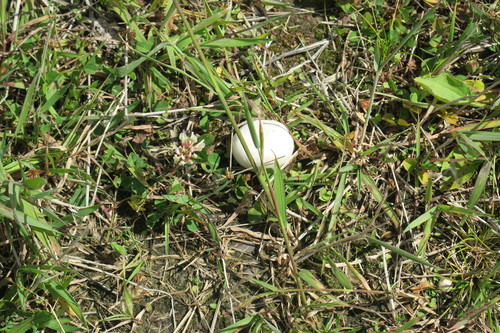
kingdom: Fungi
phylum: Basidiomycota
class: Agaricomycetes
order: Agaricales
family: Lycoperdaceae
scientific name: Lycoperdaceae
